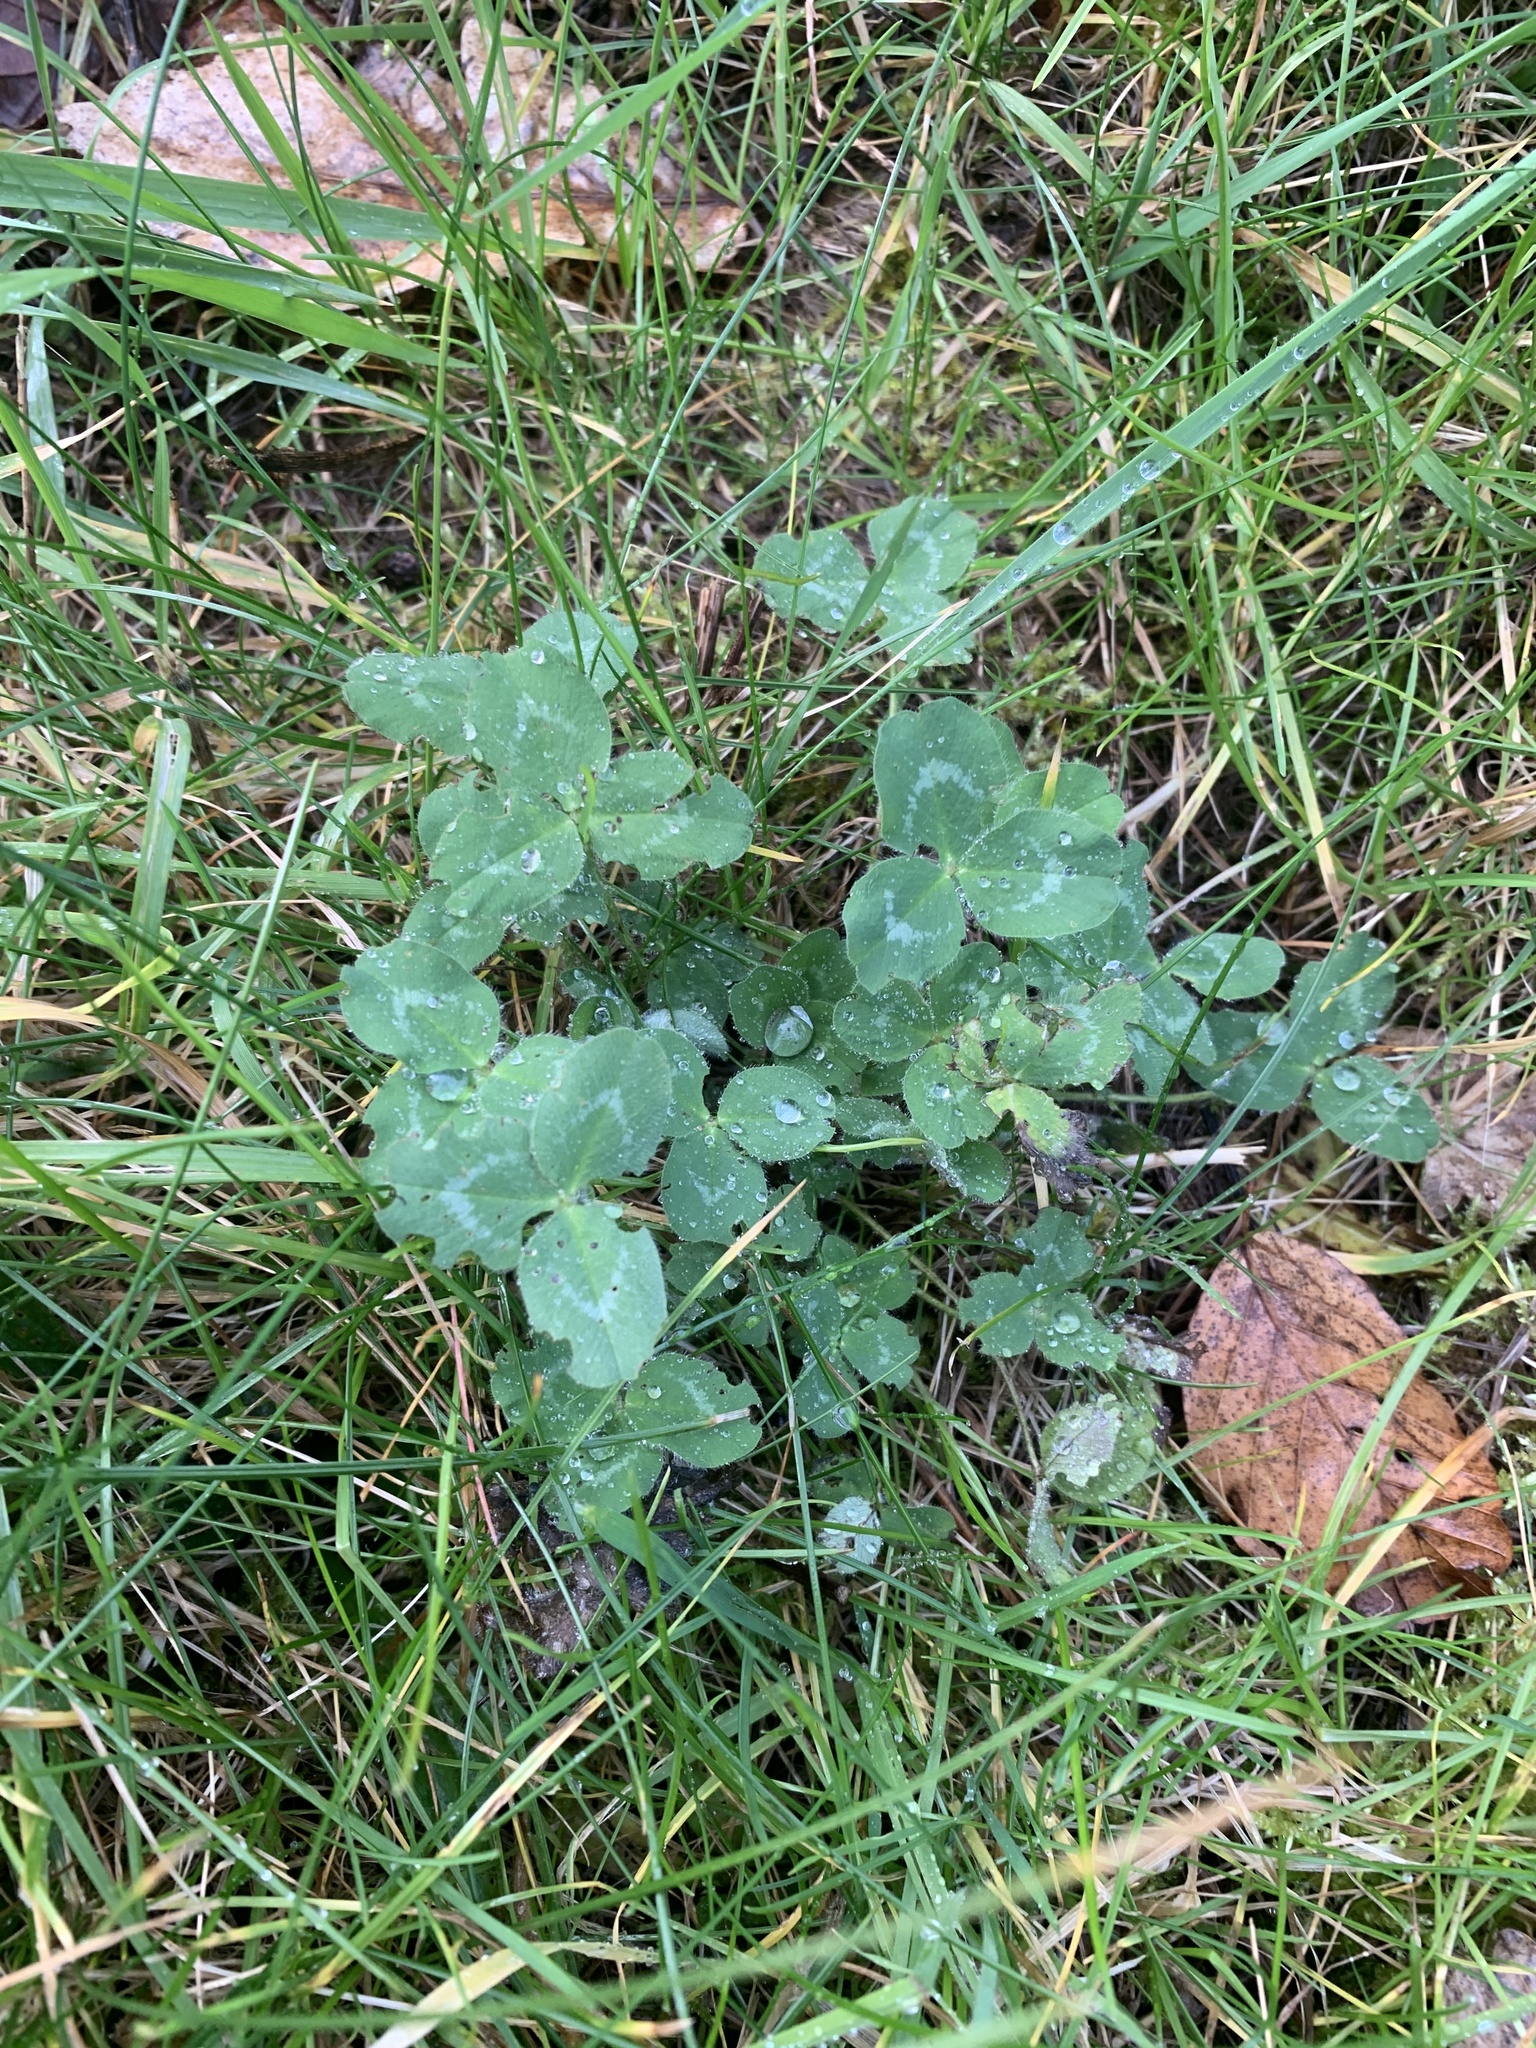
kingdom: Plantae
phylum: Tracheophyta
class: Magnoliopsida
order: Fabales
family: Fabaceae
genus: Trifolium
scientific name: Trifolium pratense
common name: Red clover
